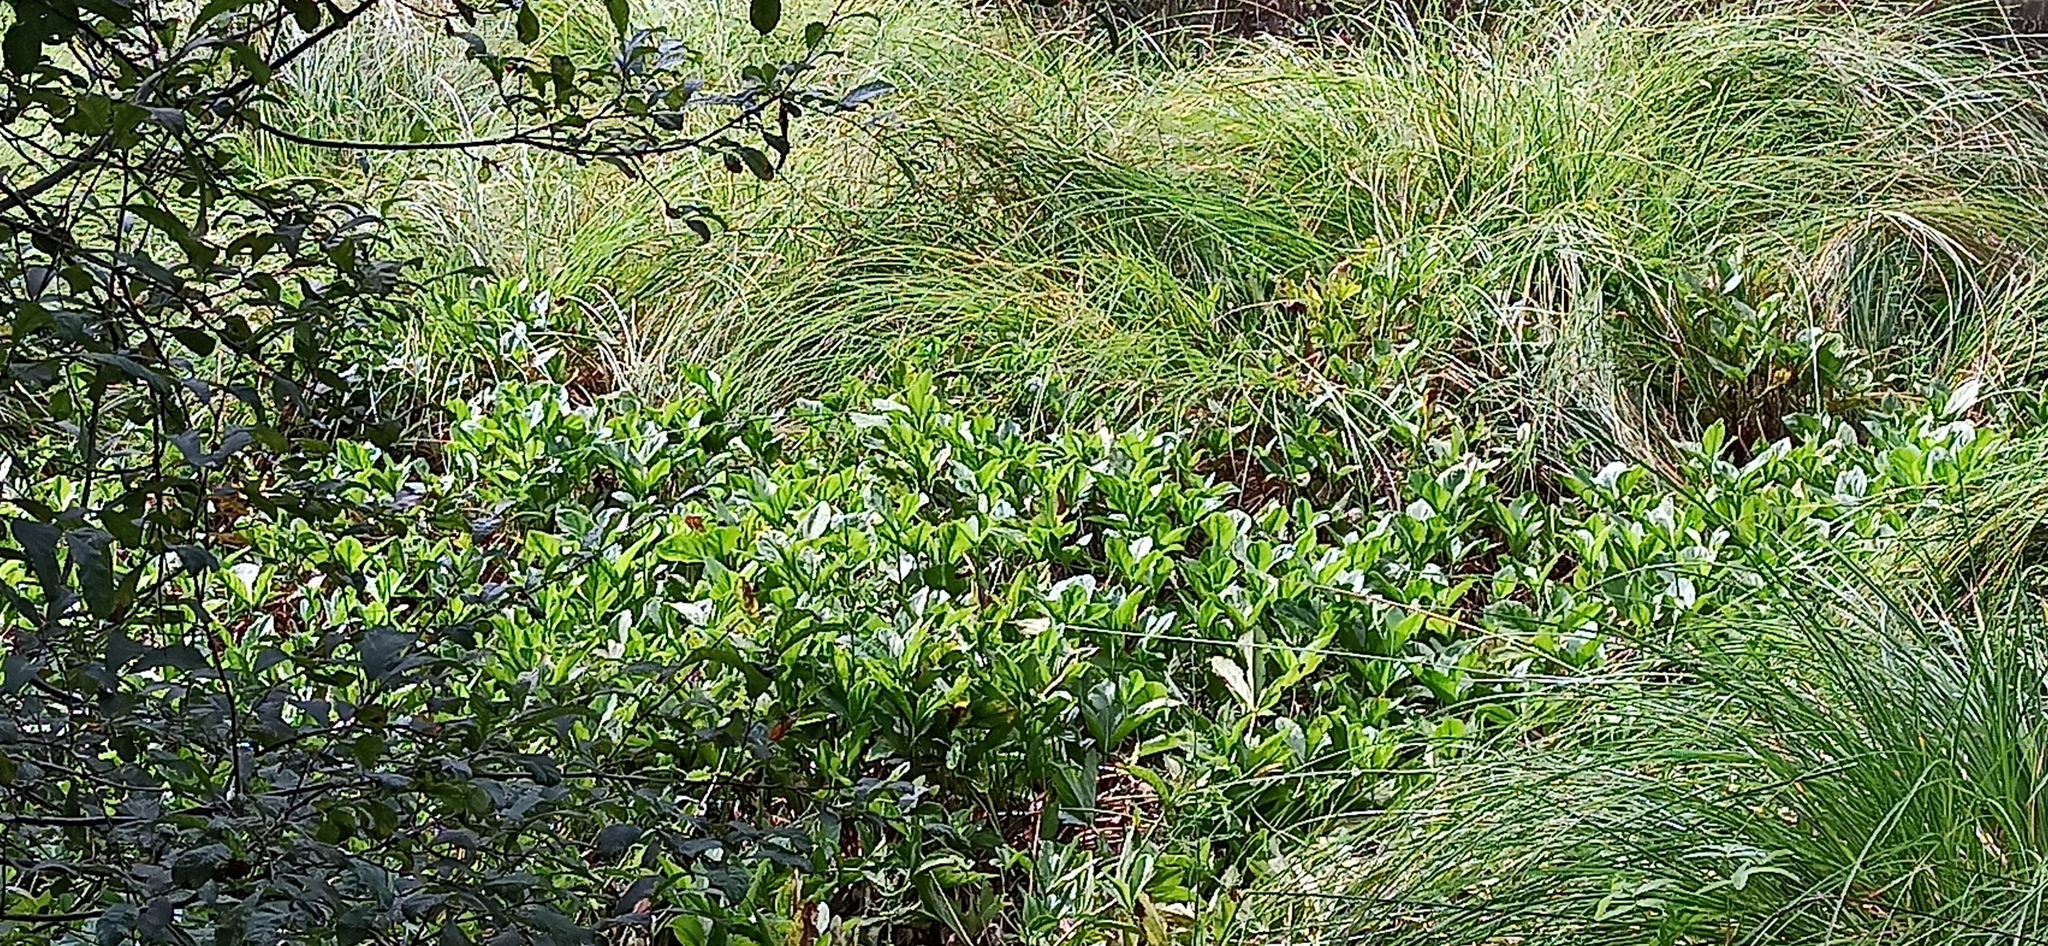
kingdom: Plantae
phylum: Tracheophyta
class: Magnoliopsida
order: Asterales
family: Menyanthaceae
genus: Menyanthes
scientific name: Menyanthes trifoliata
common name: Bogbean
